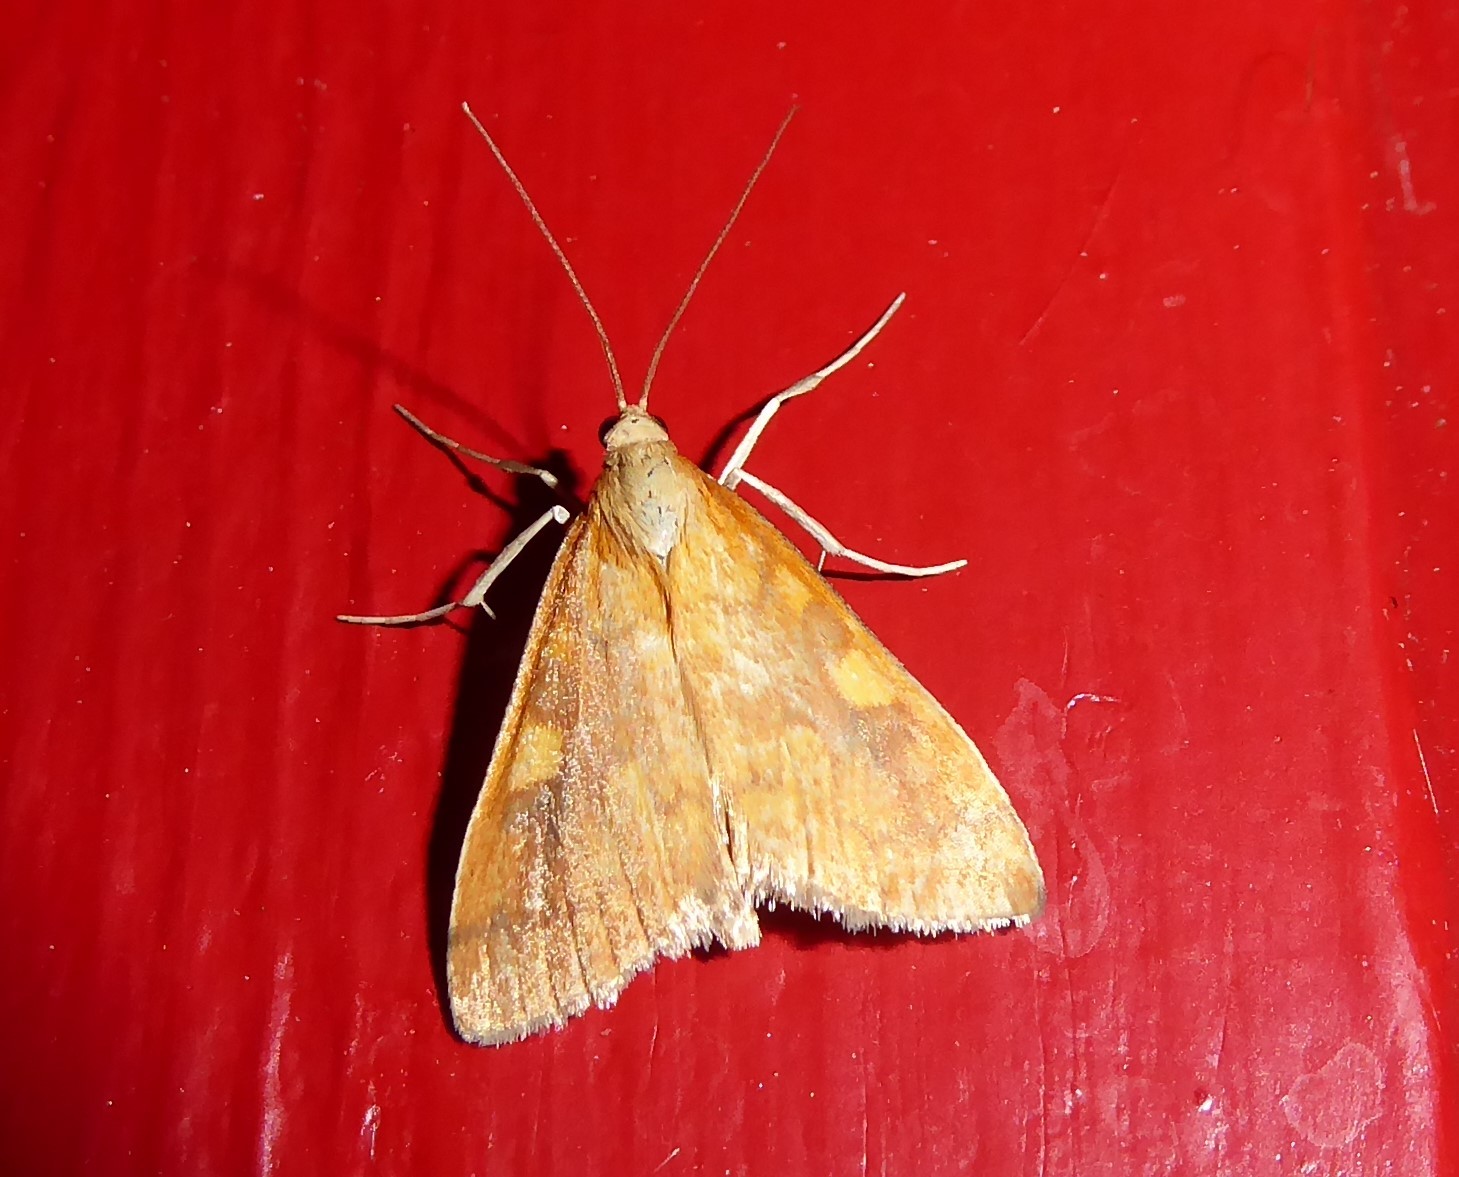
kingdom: Animalia
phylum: Arthropoda
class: Insecta
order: Lepidoptera
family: Crambidae
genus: Udea
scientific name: Udea Mnesictena flavidalis
